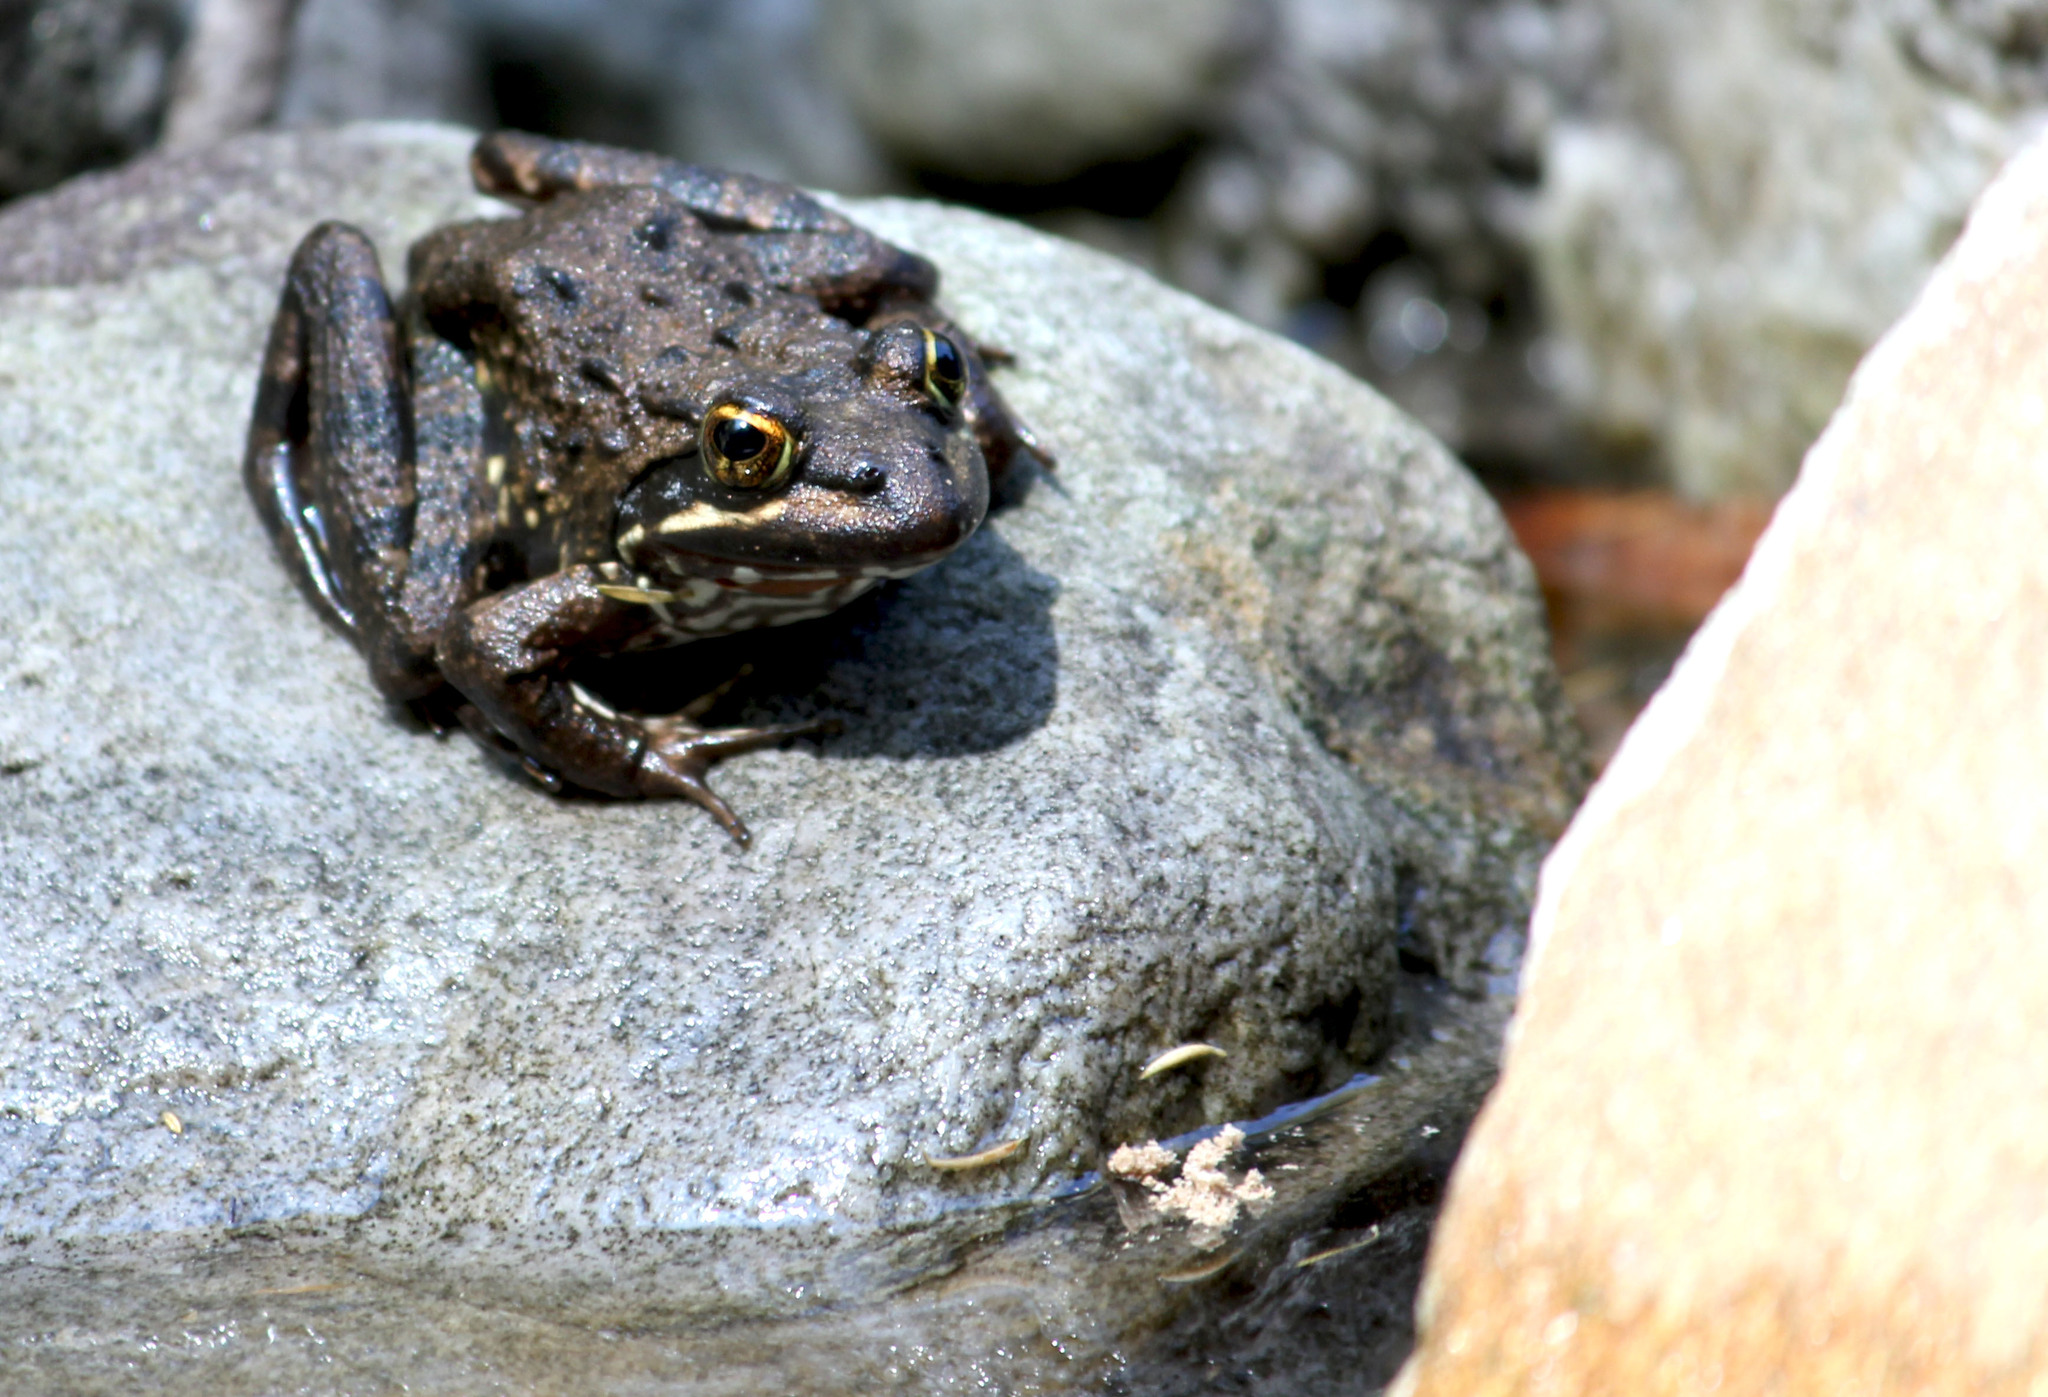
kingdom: Animalia
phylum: Chordata
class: Amphibia
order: Anura
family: Pyxicephalidae
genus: Amietia
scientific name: Amietia fuscigula
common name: Cape rana
